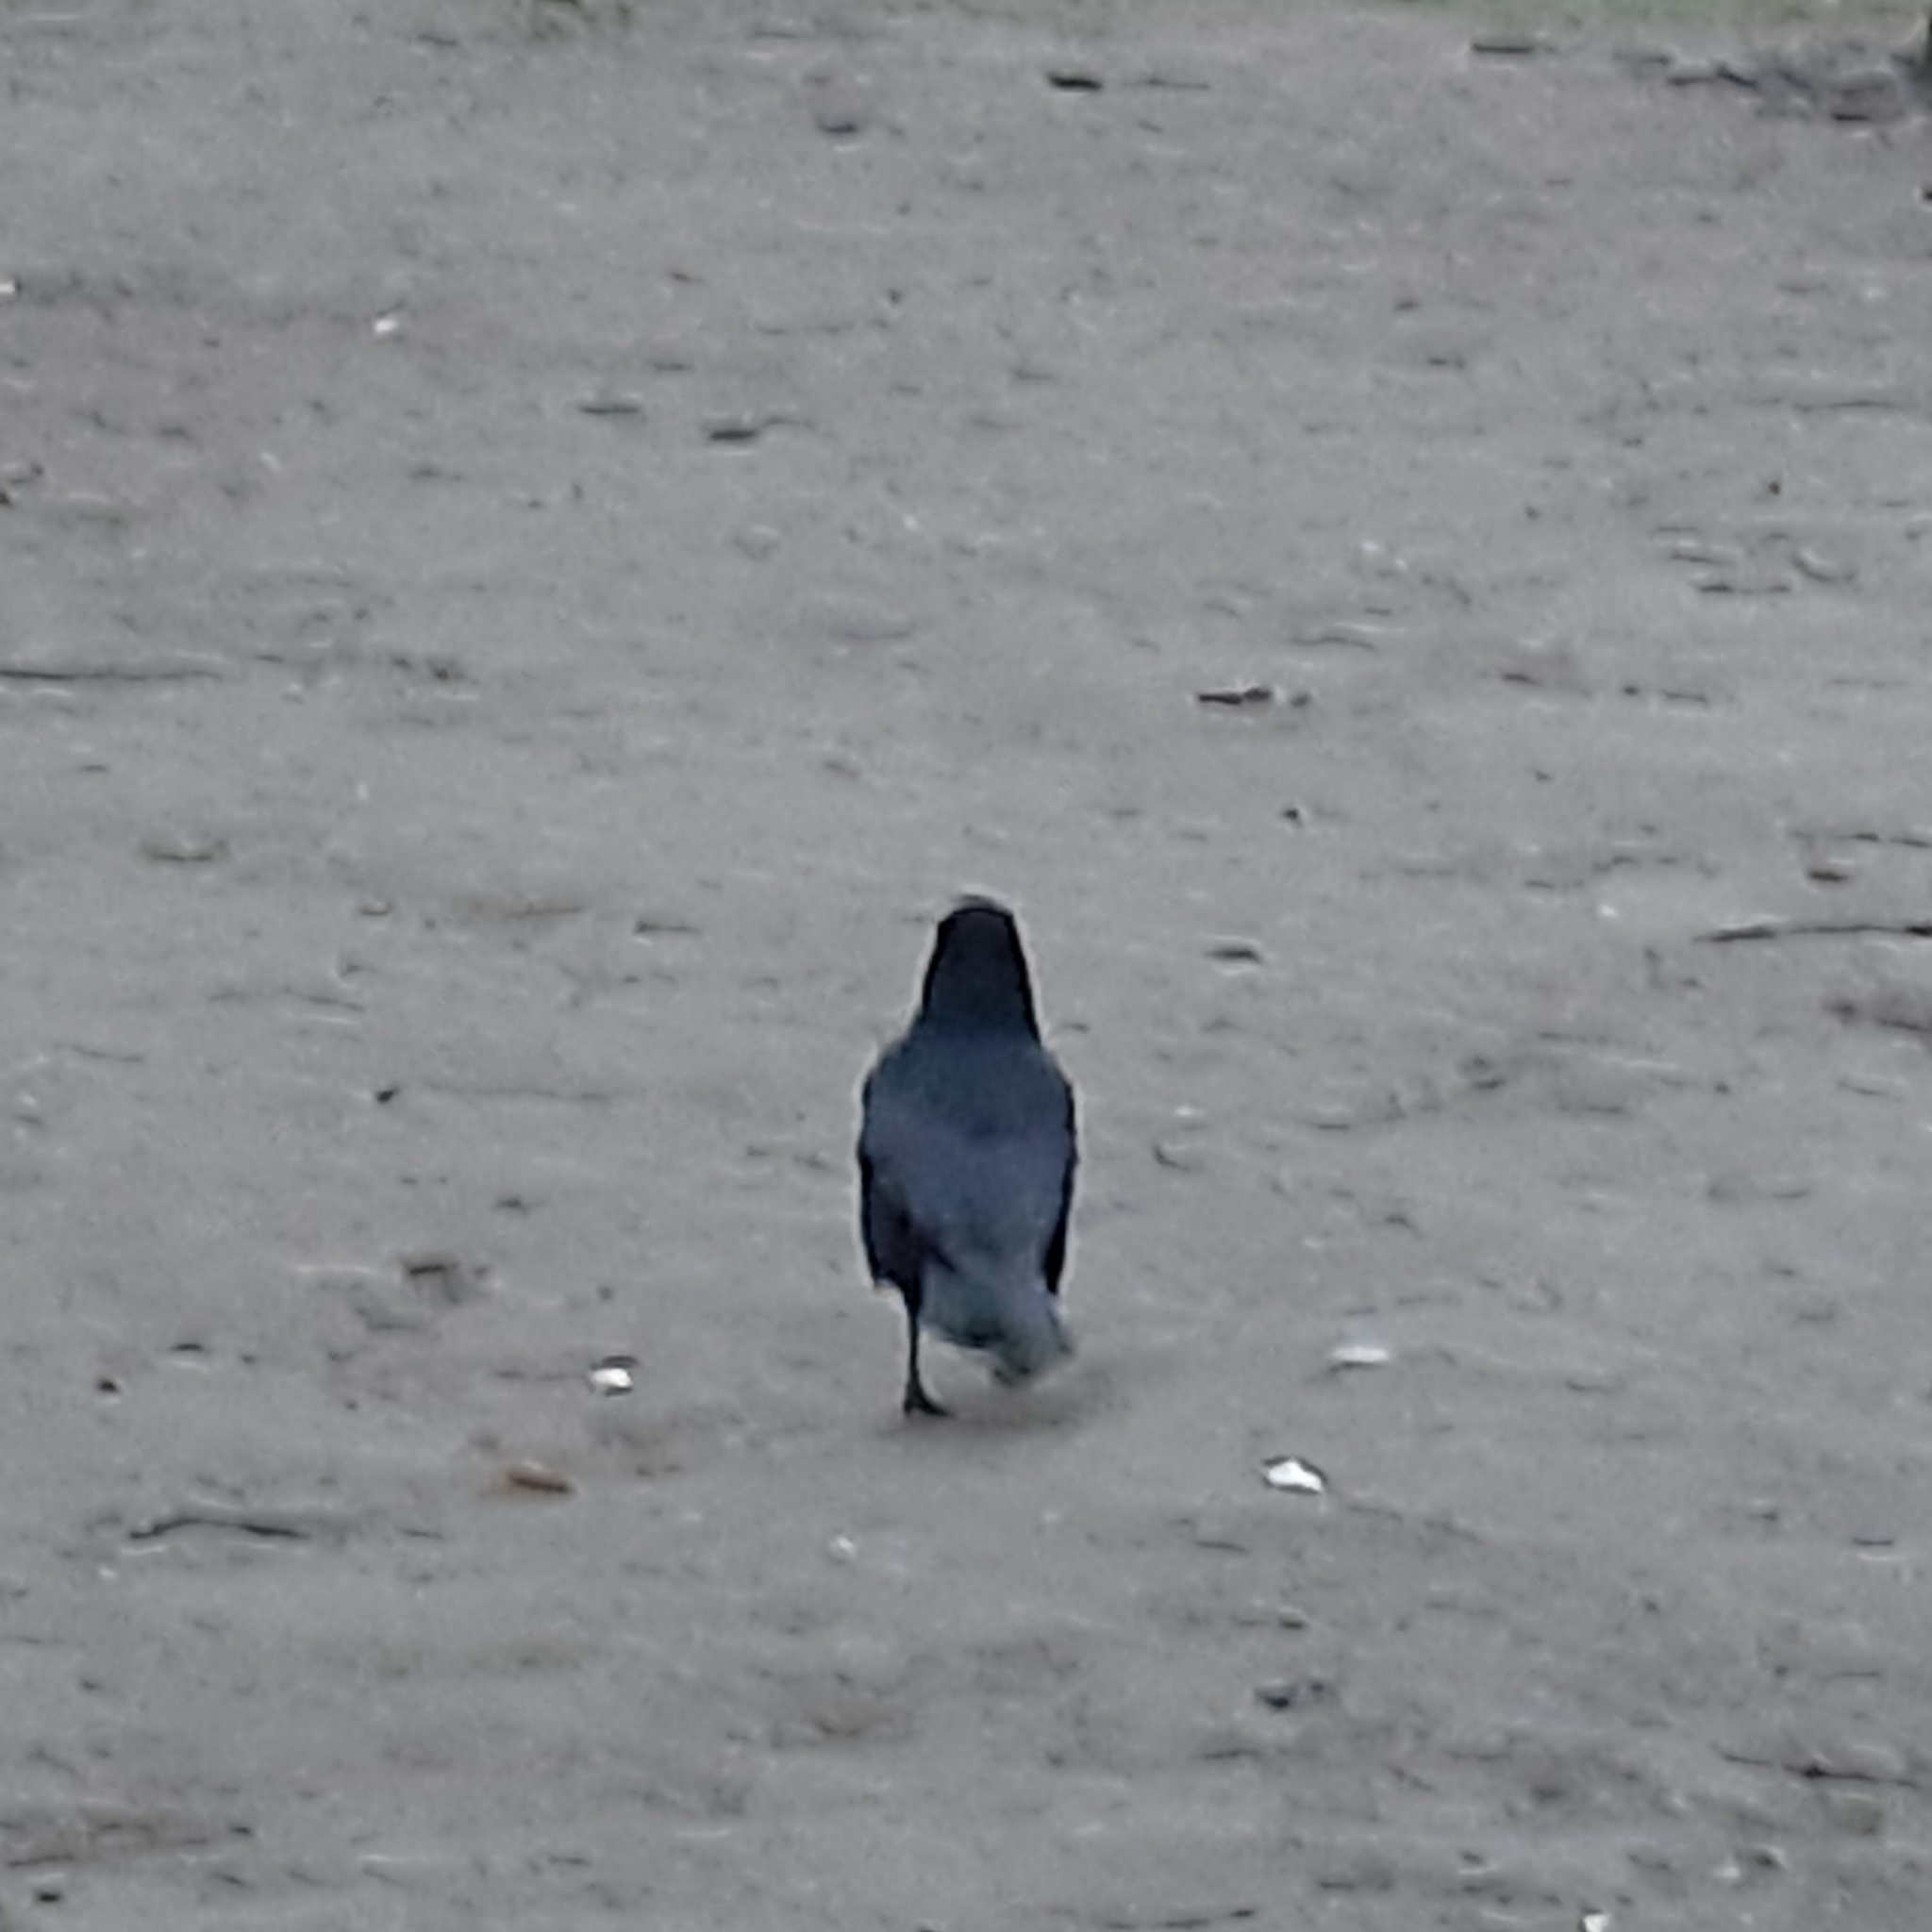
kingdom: Animalia
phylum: Chordata
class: Aves
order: Passeriformes
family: Corvidae
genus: Corvus
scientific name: Corvus corone
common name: Carrion crow
